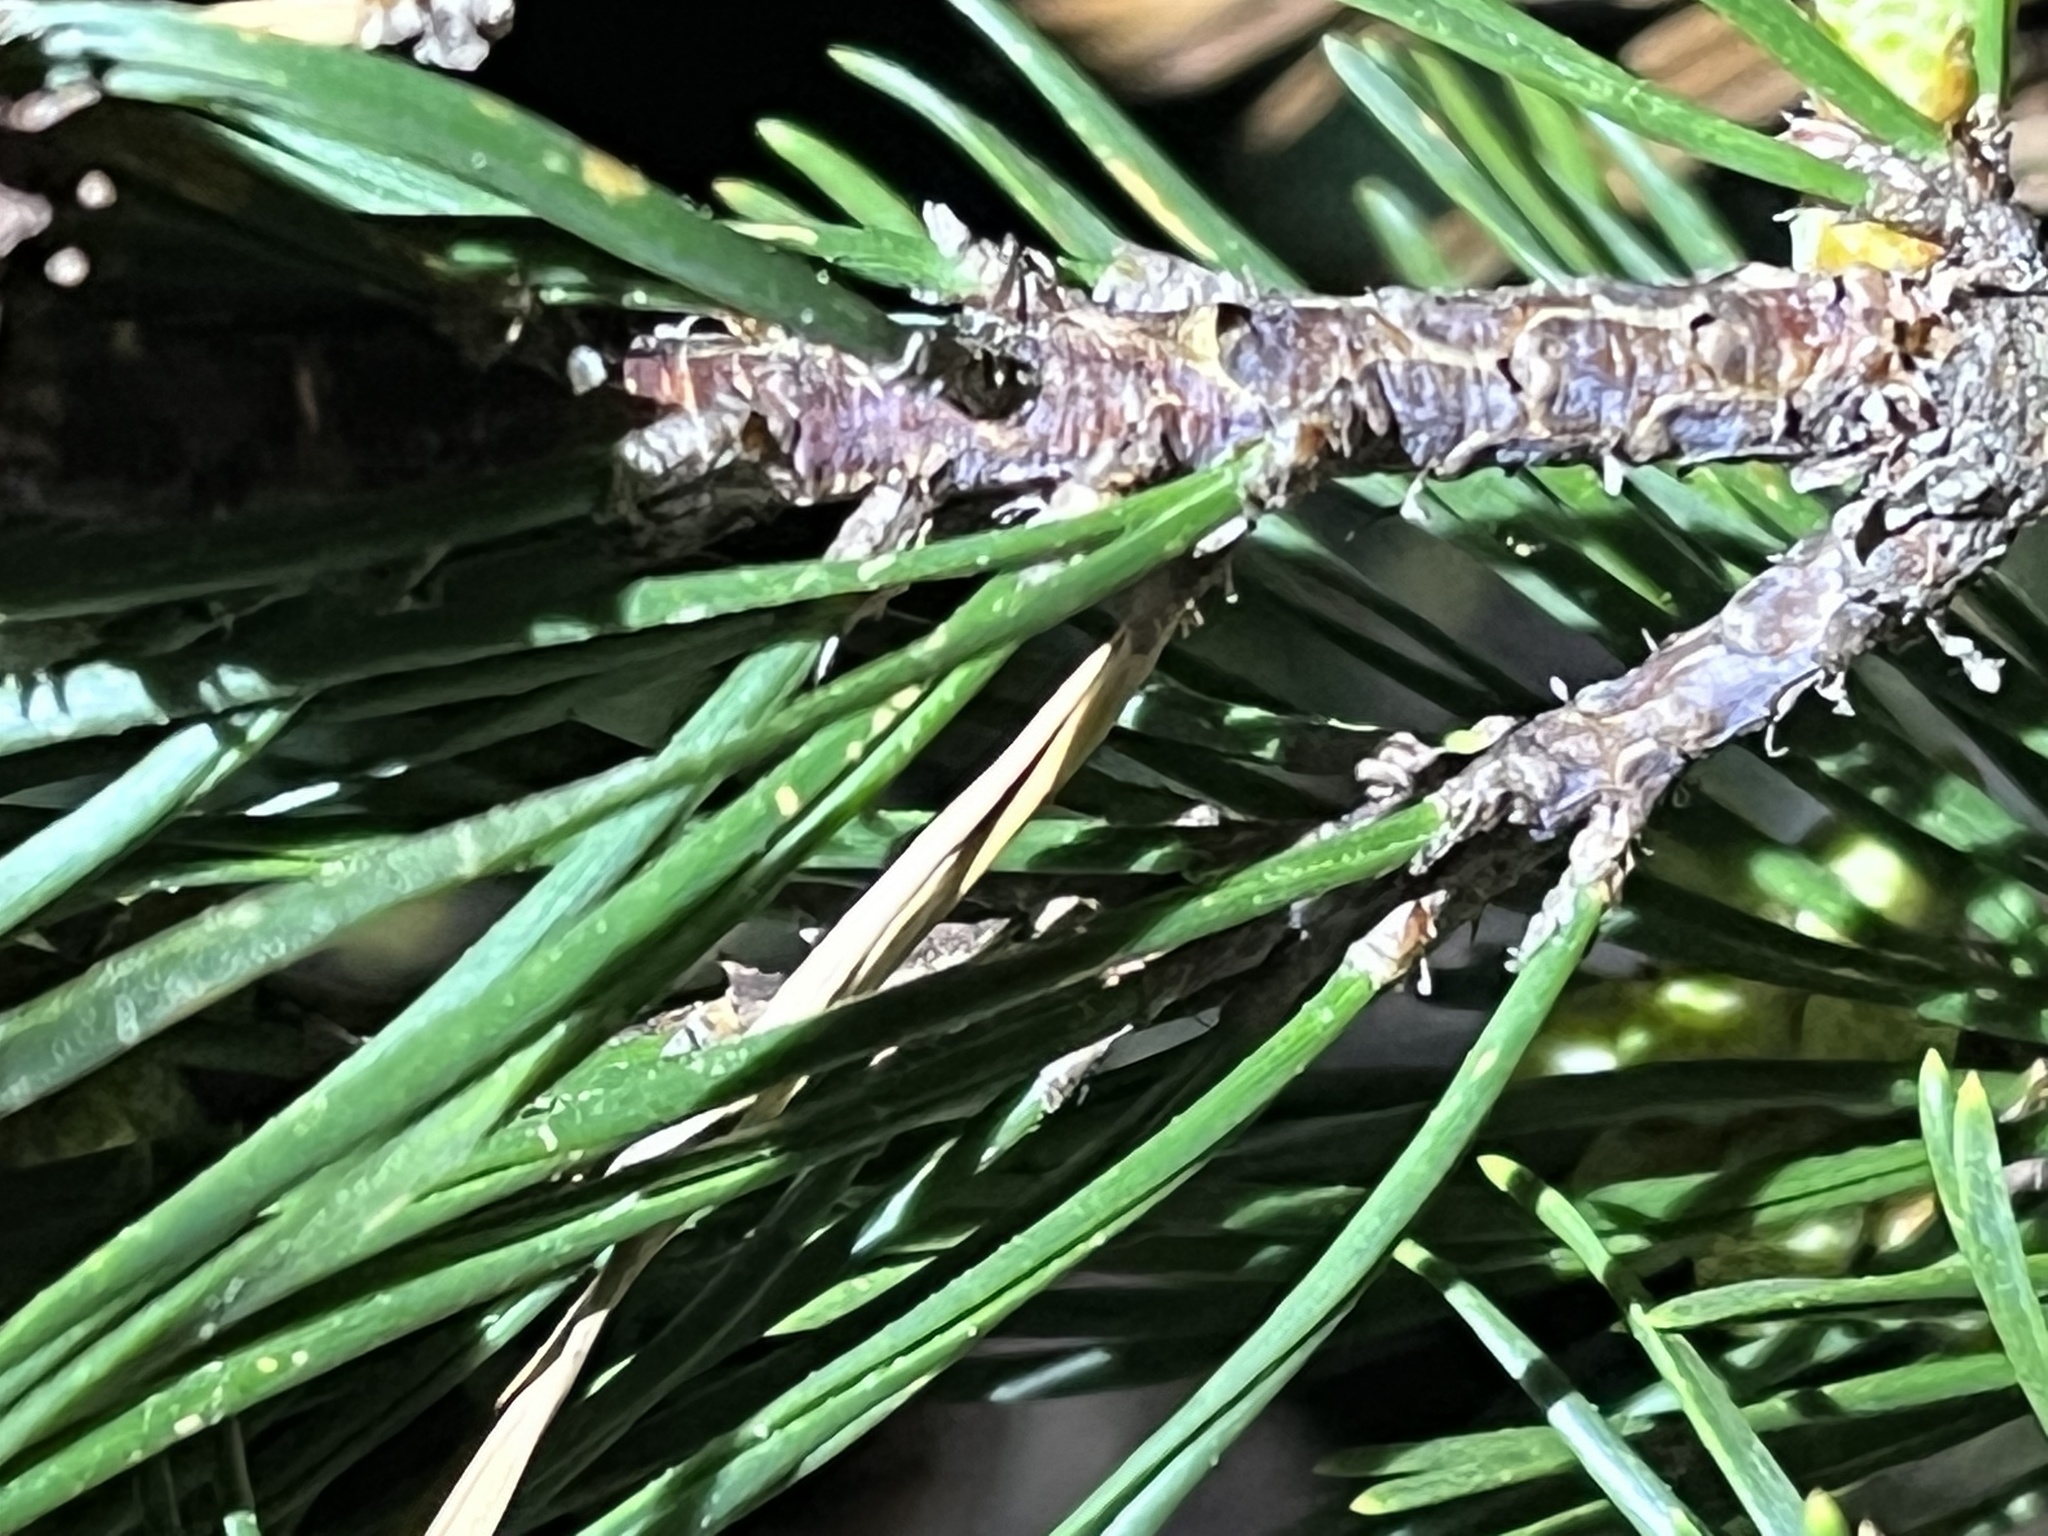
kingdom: Plantae
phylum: Tracheophyta
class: Pinopsida
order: Pinales
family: Pinaceae
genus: Pinus
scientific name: Pinus virginiana
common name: Scrub pine
